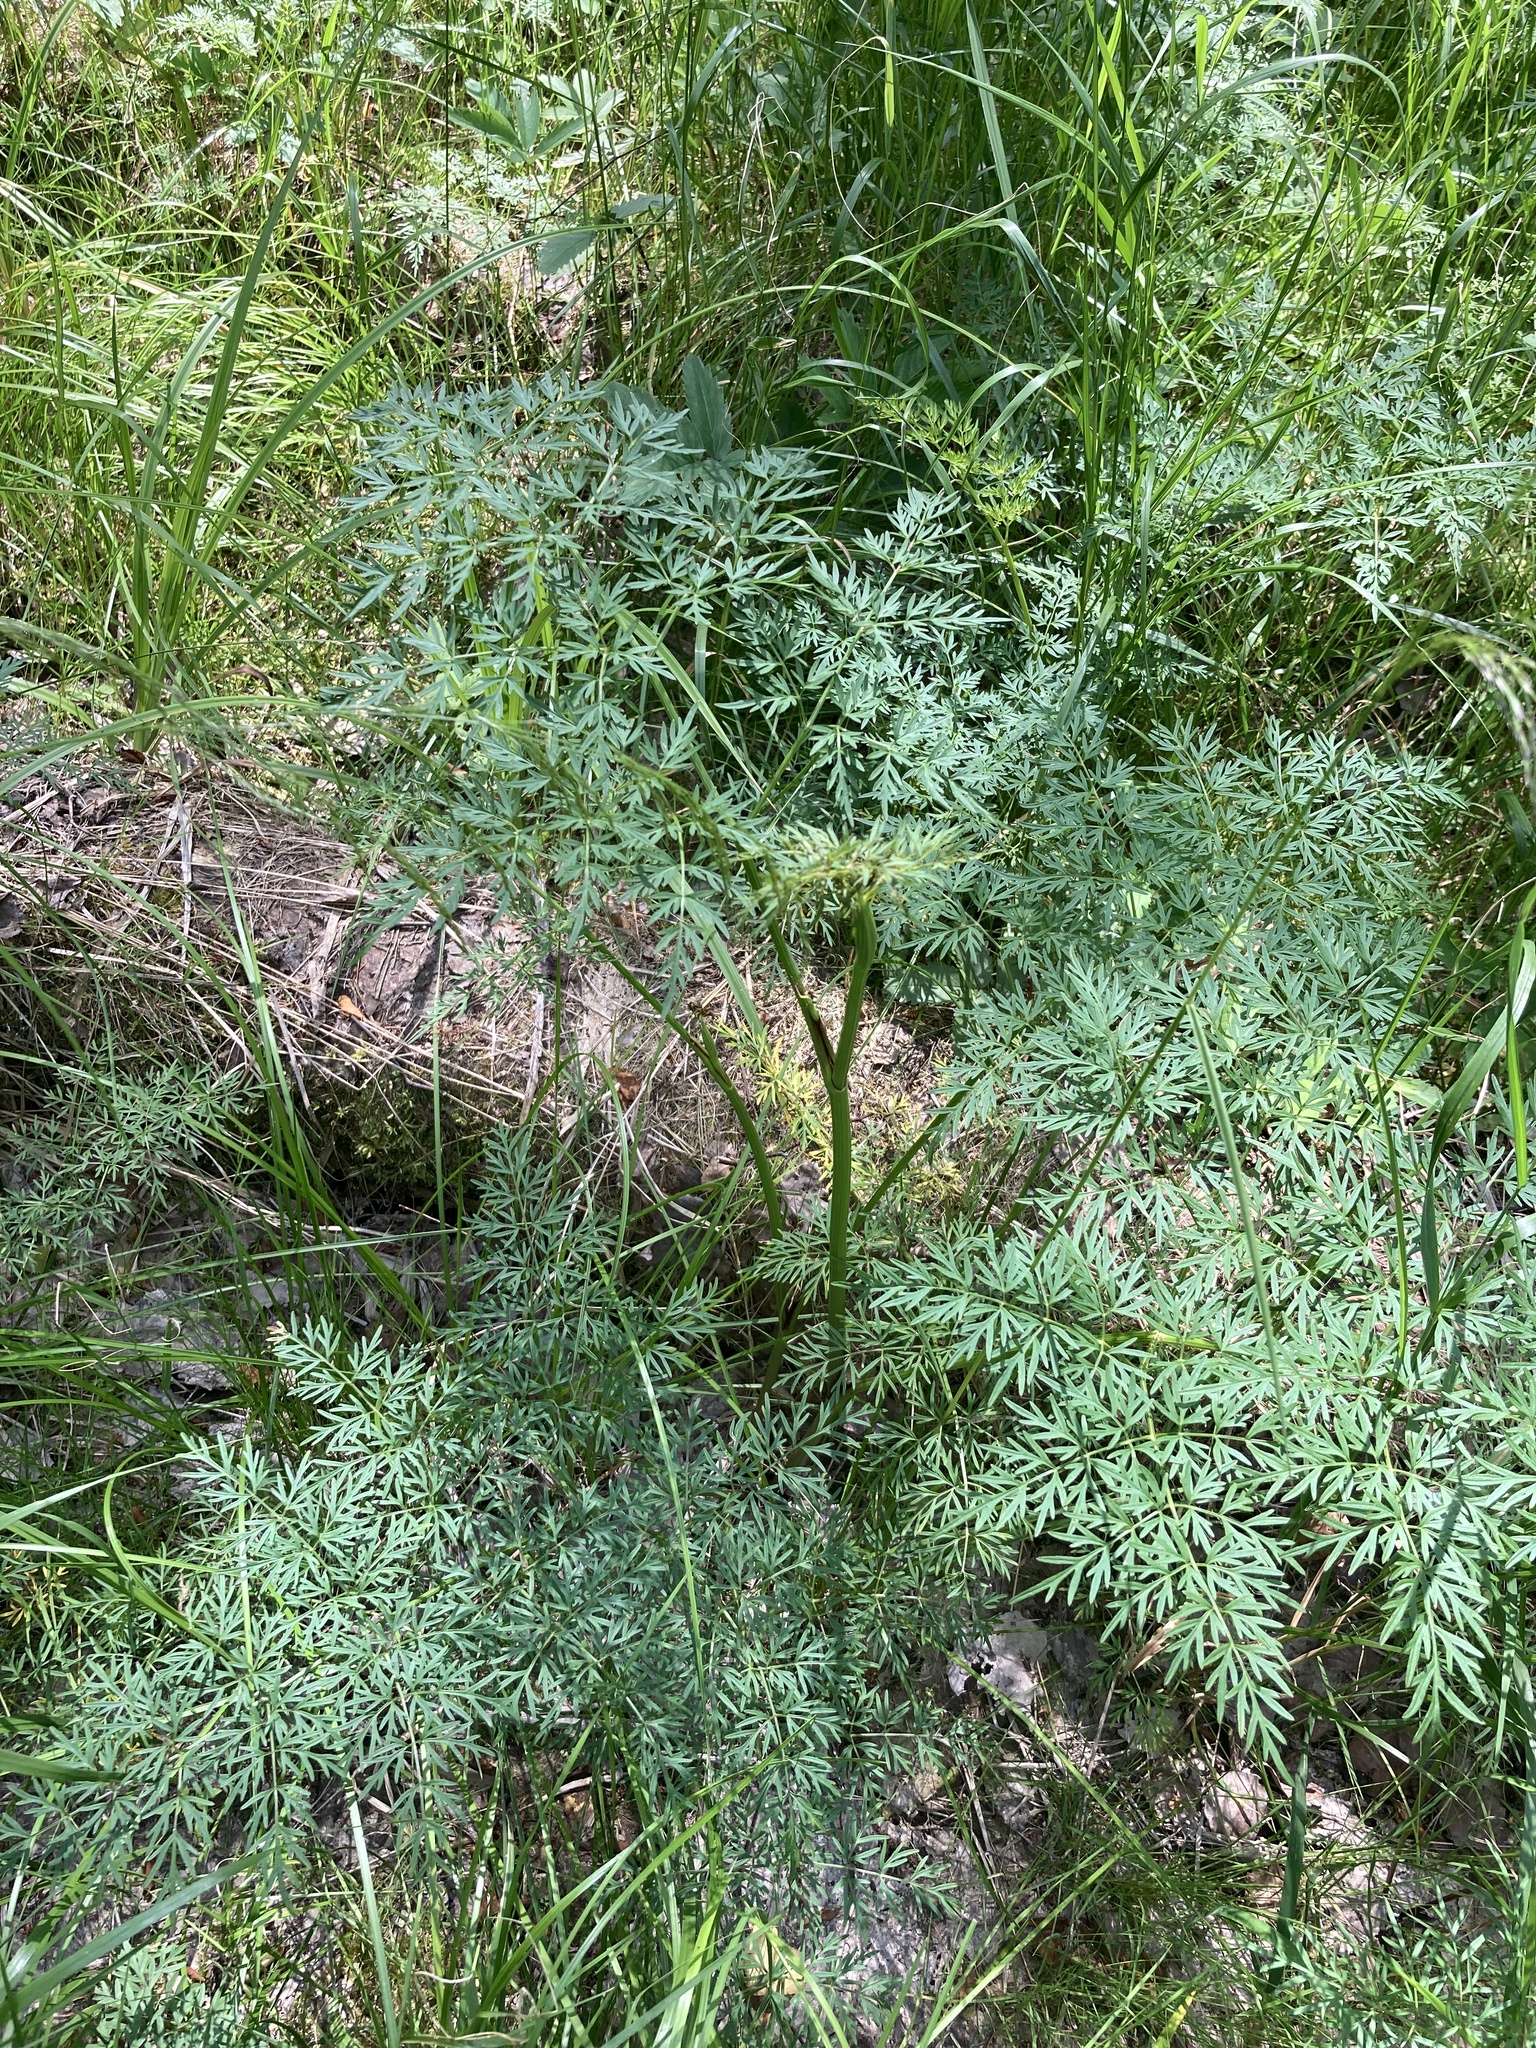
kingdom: Plantae
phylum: Tracheophyta
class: Magnoliopsida
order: Apiales
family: Apiaceae
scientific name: Apiaceae
